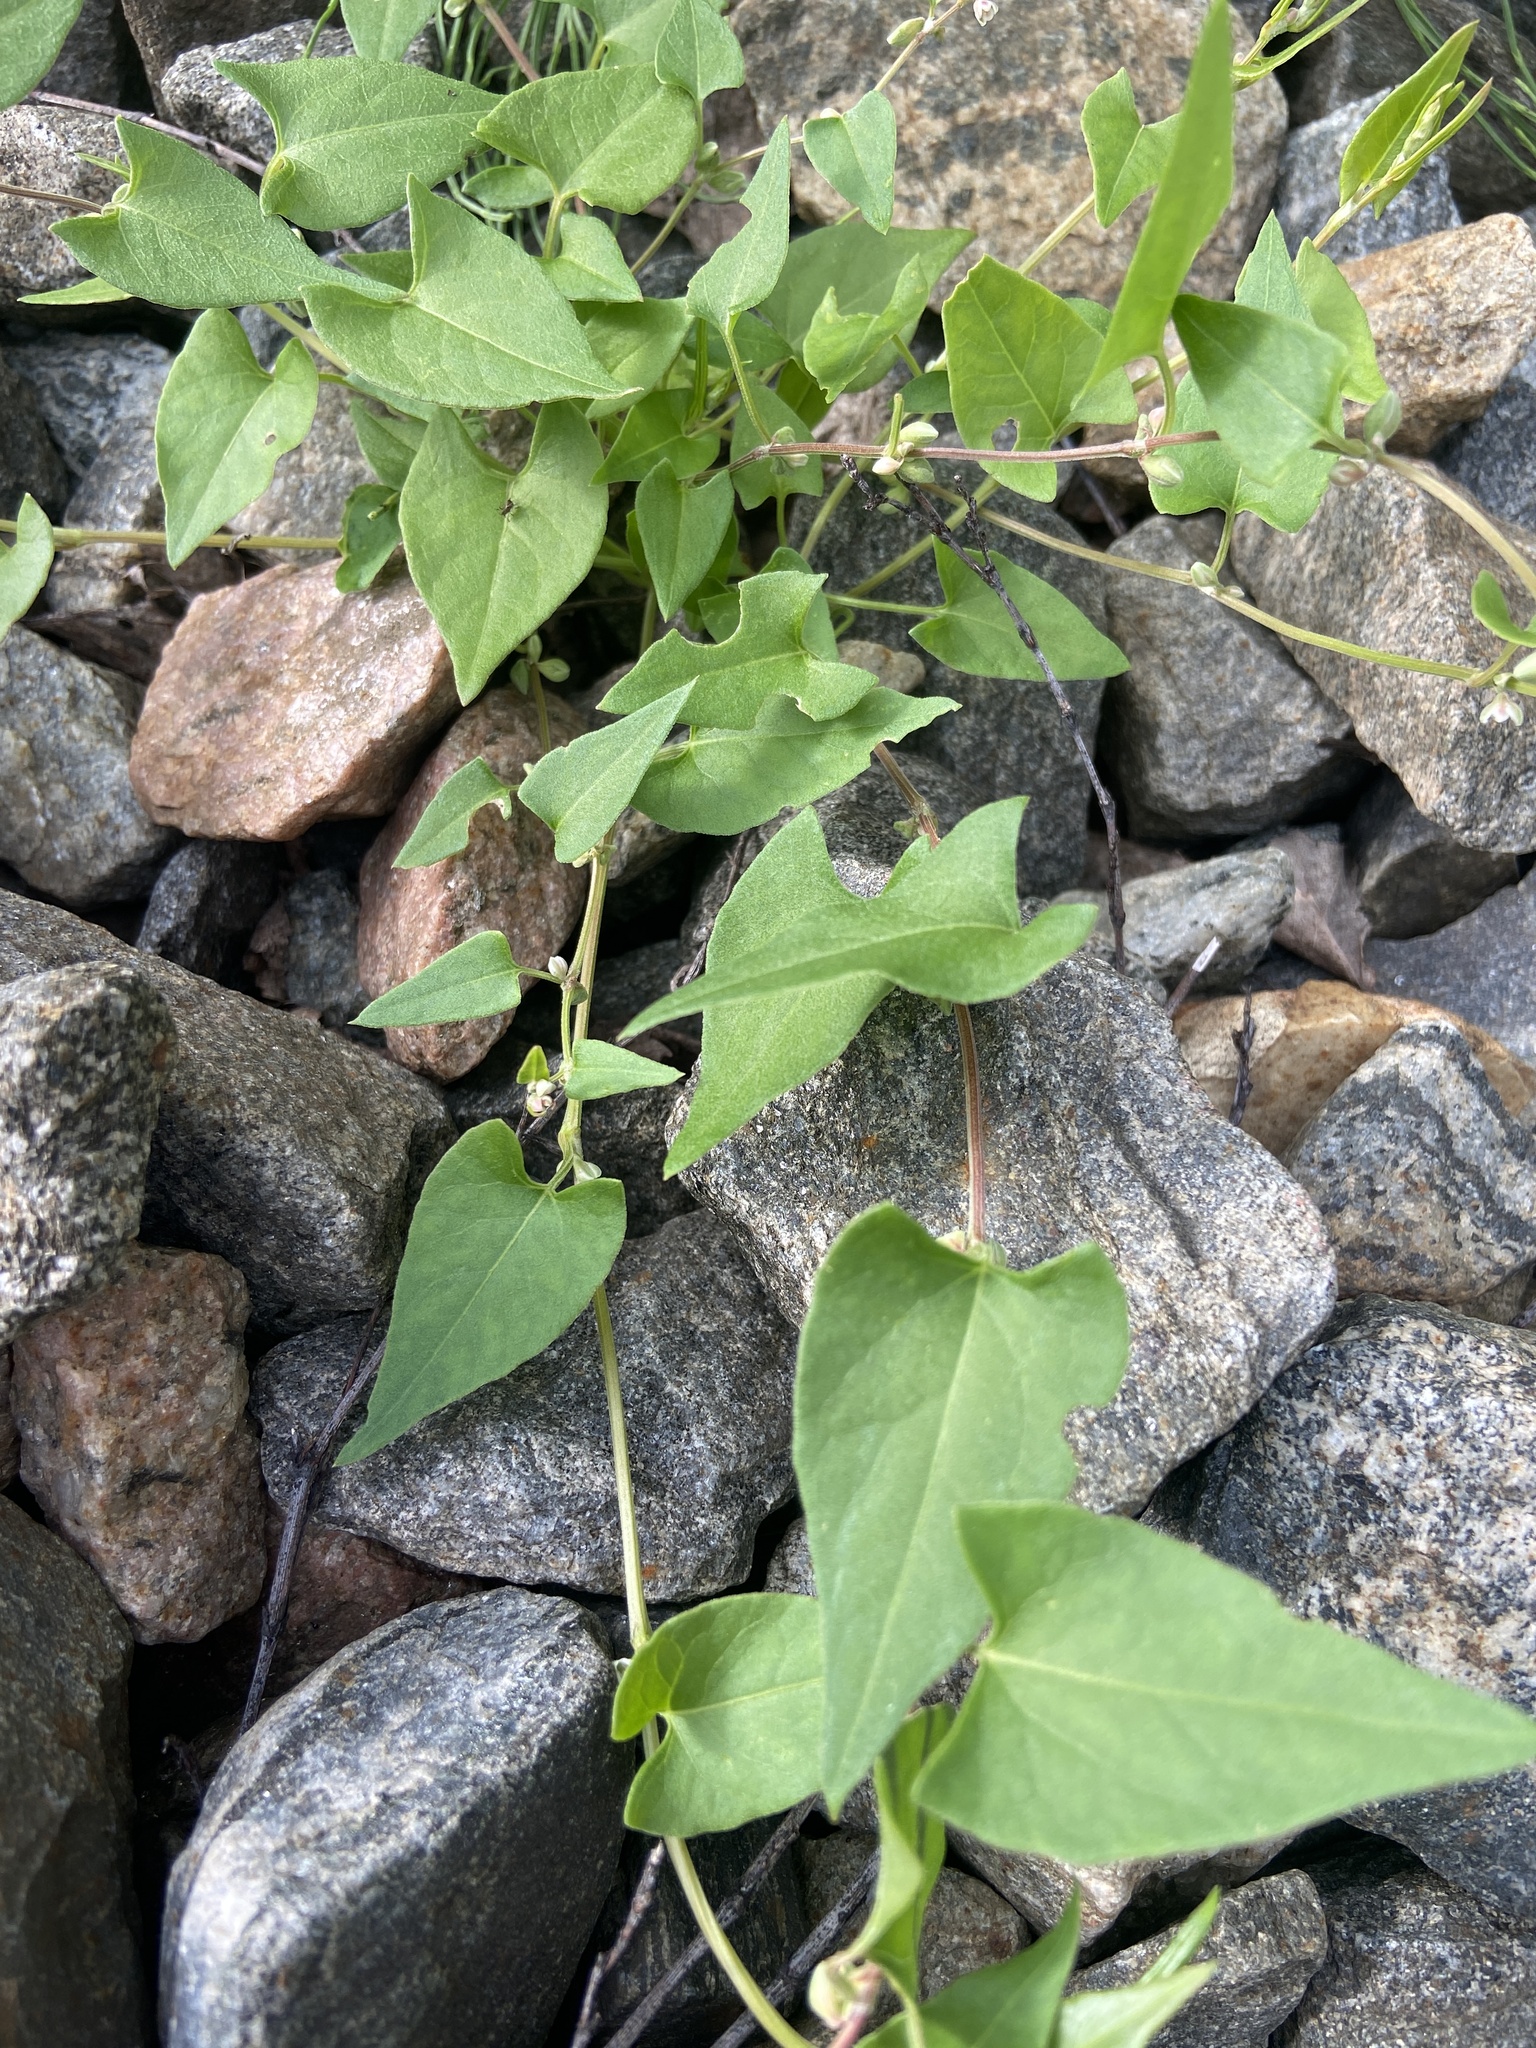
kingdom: Plantae
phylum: Tracheophyta
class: Magnoliopsida
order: Caryophyllales
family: Polygonaceae
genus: Fallopia
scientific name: Fallopia convolvulus
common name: Black bindweed
